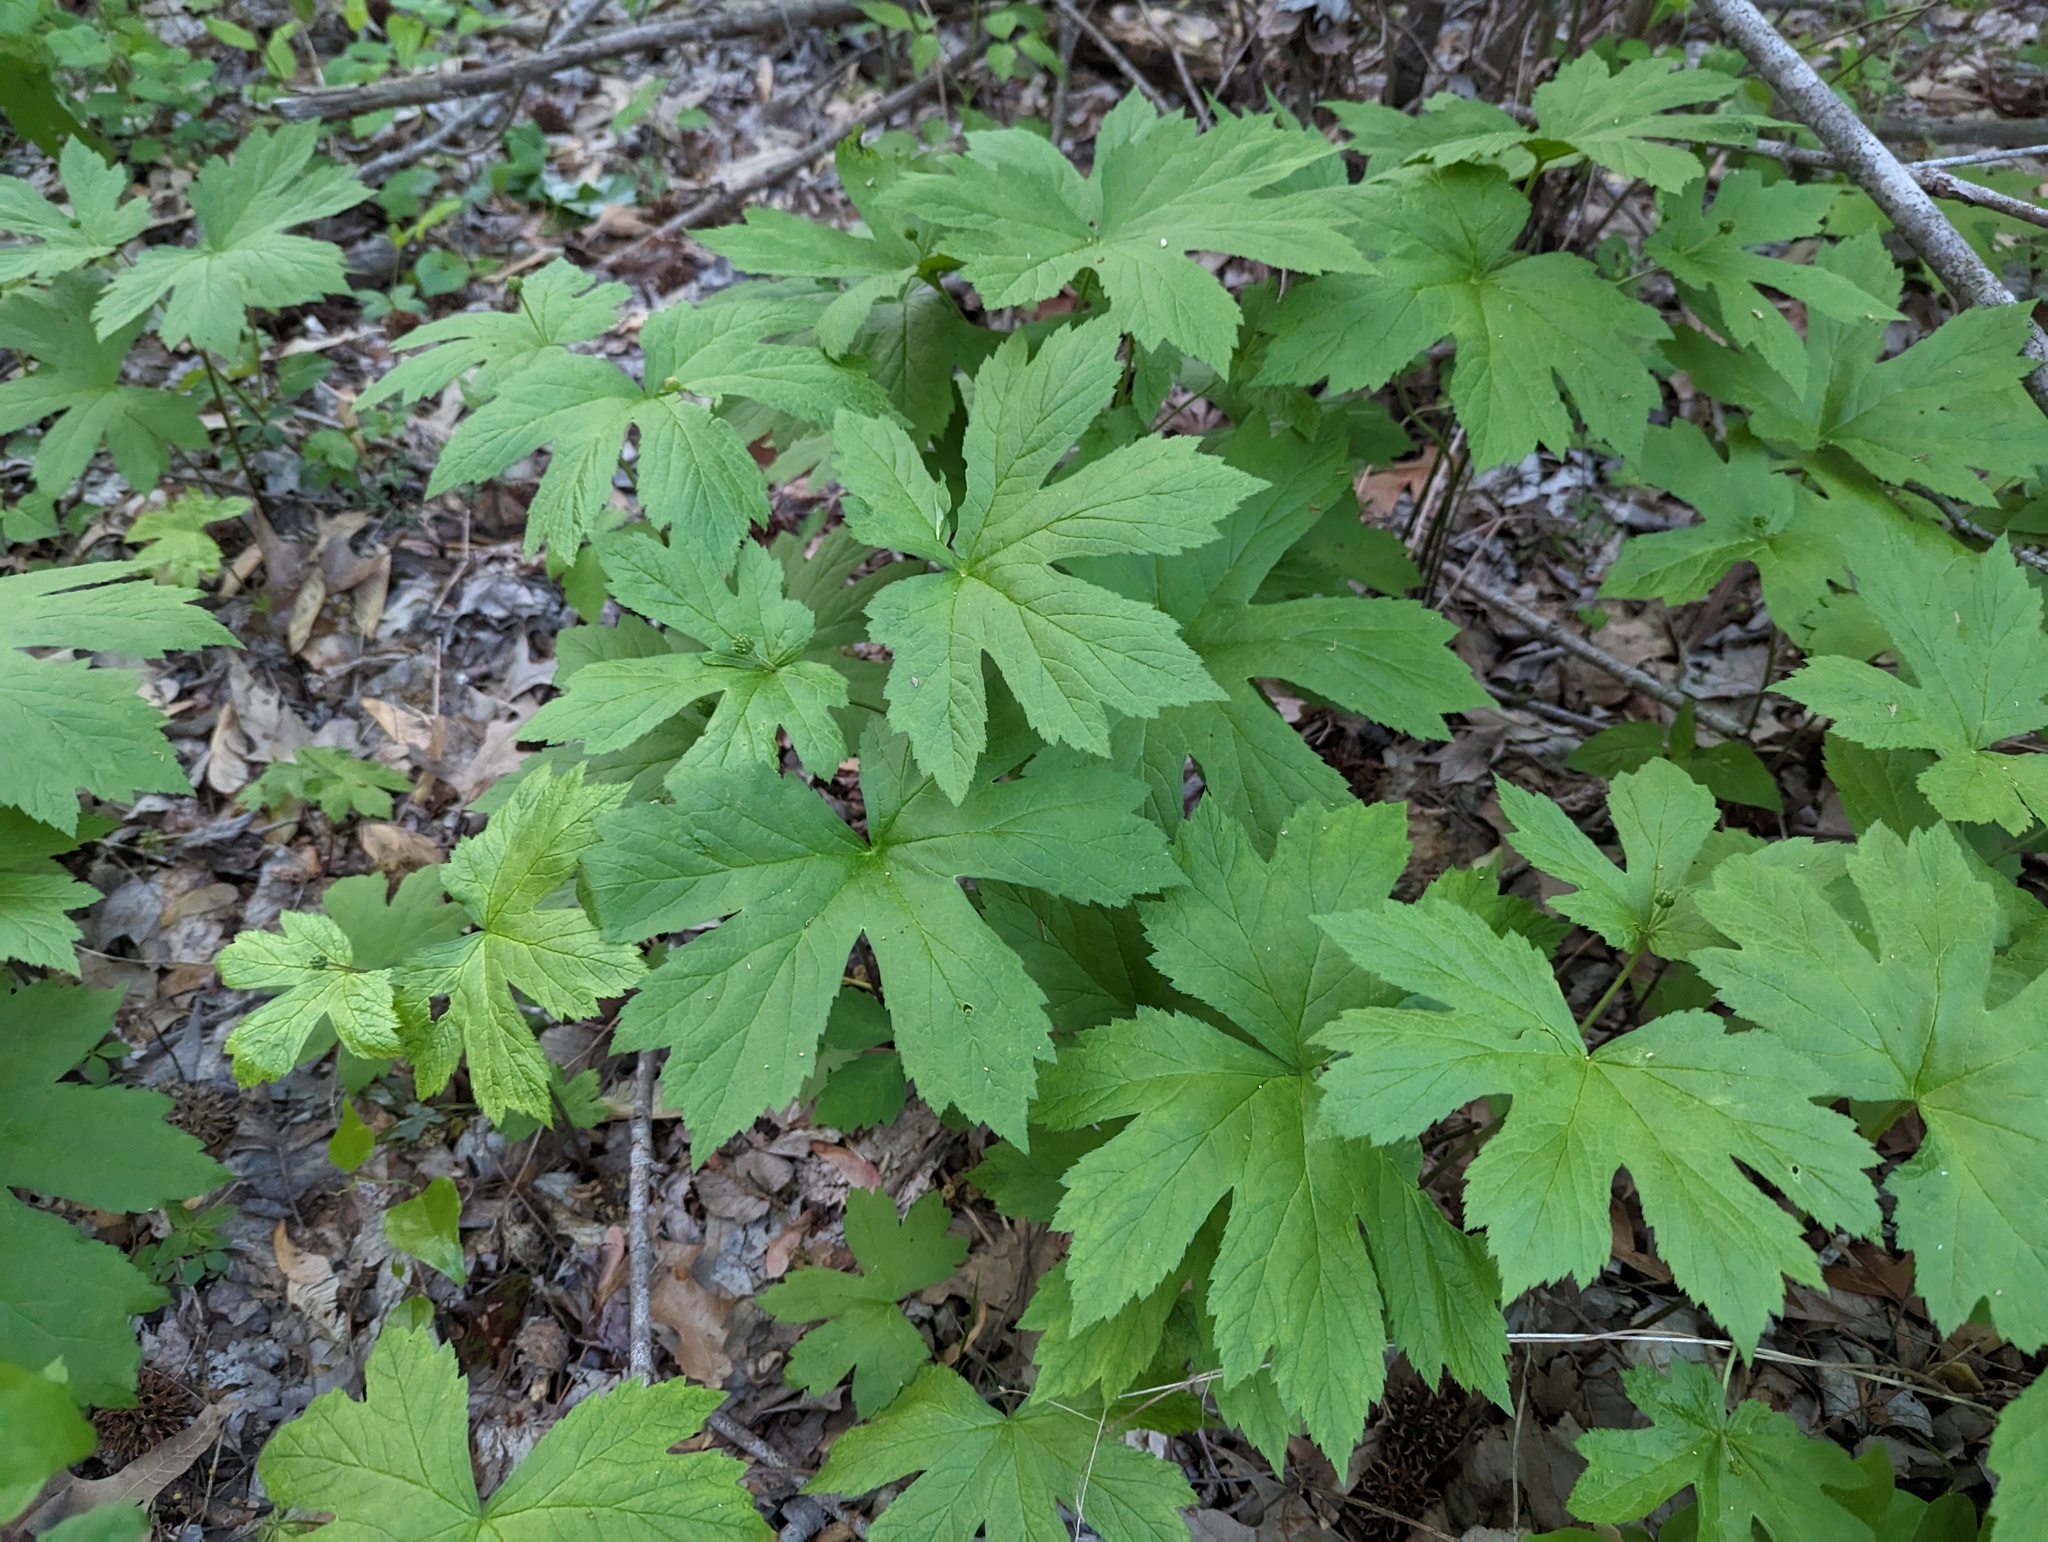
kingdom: Plantae
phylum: Tracheophyta
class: Magnoliopsida
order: Ranunculales
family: Ranunculaceae
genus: Hydrastis
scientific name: Hydrastis canadensis
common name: Goldenseal
